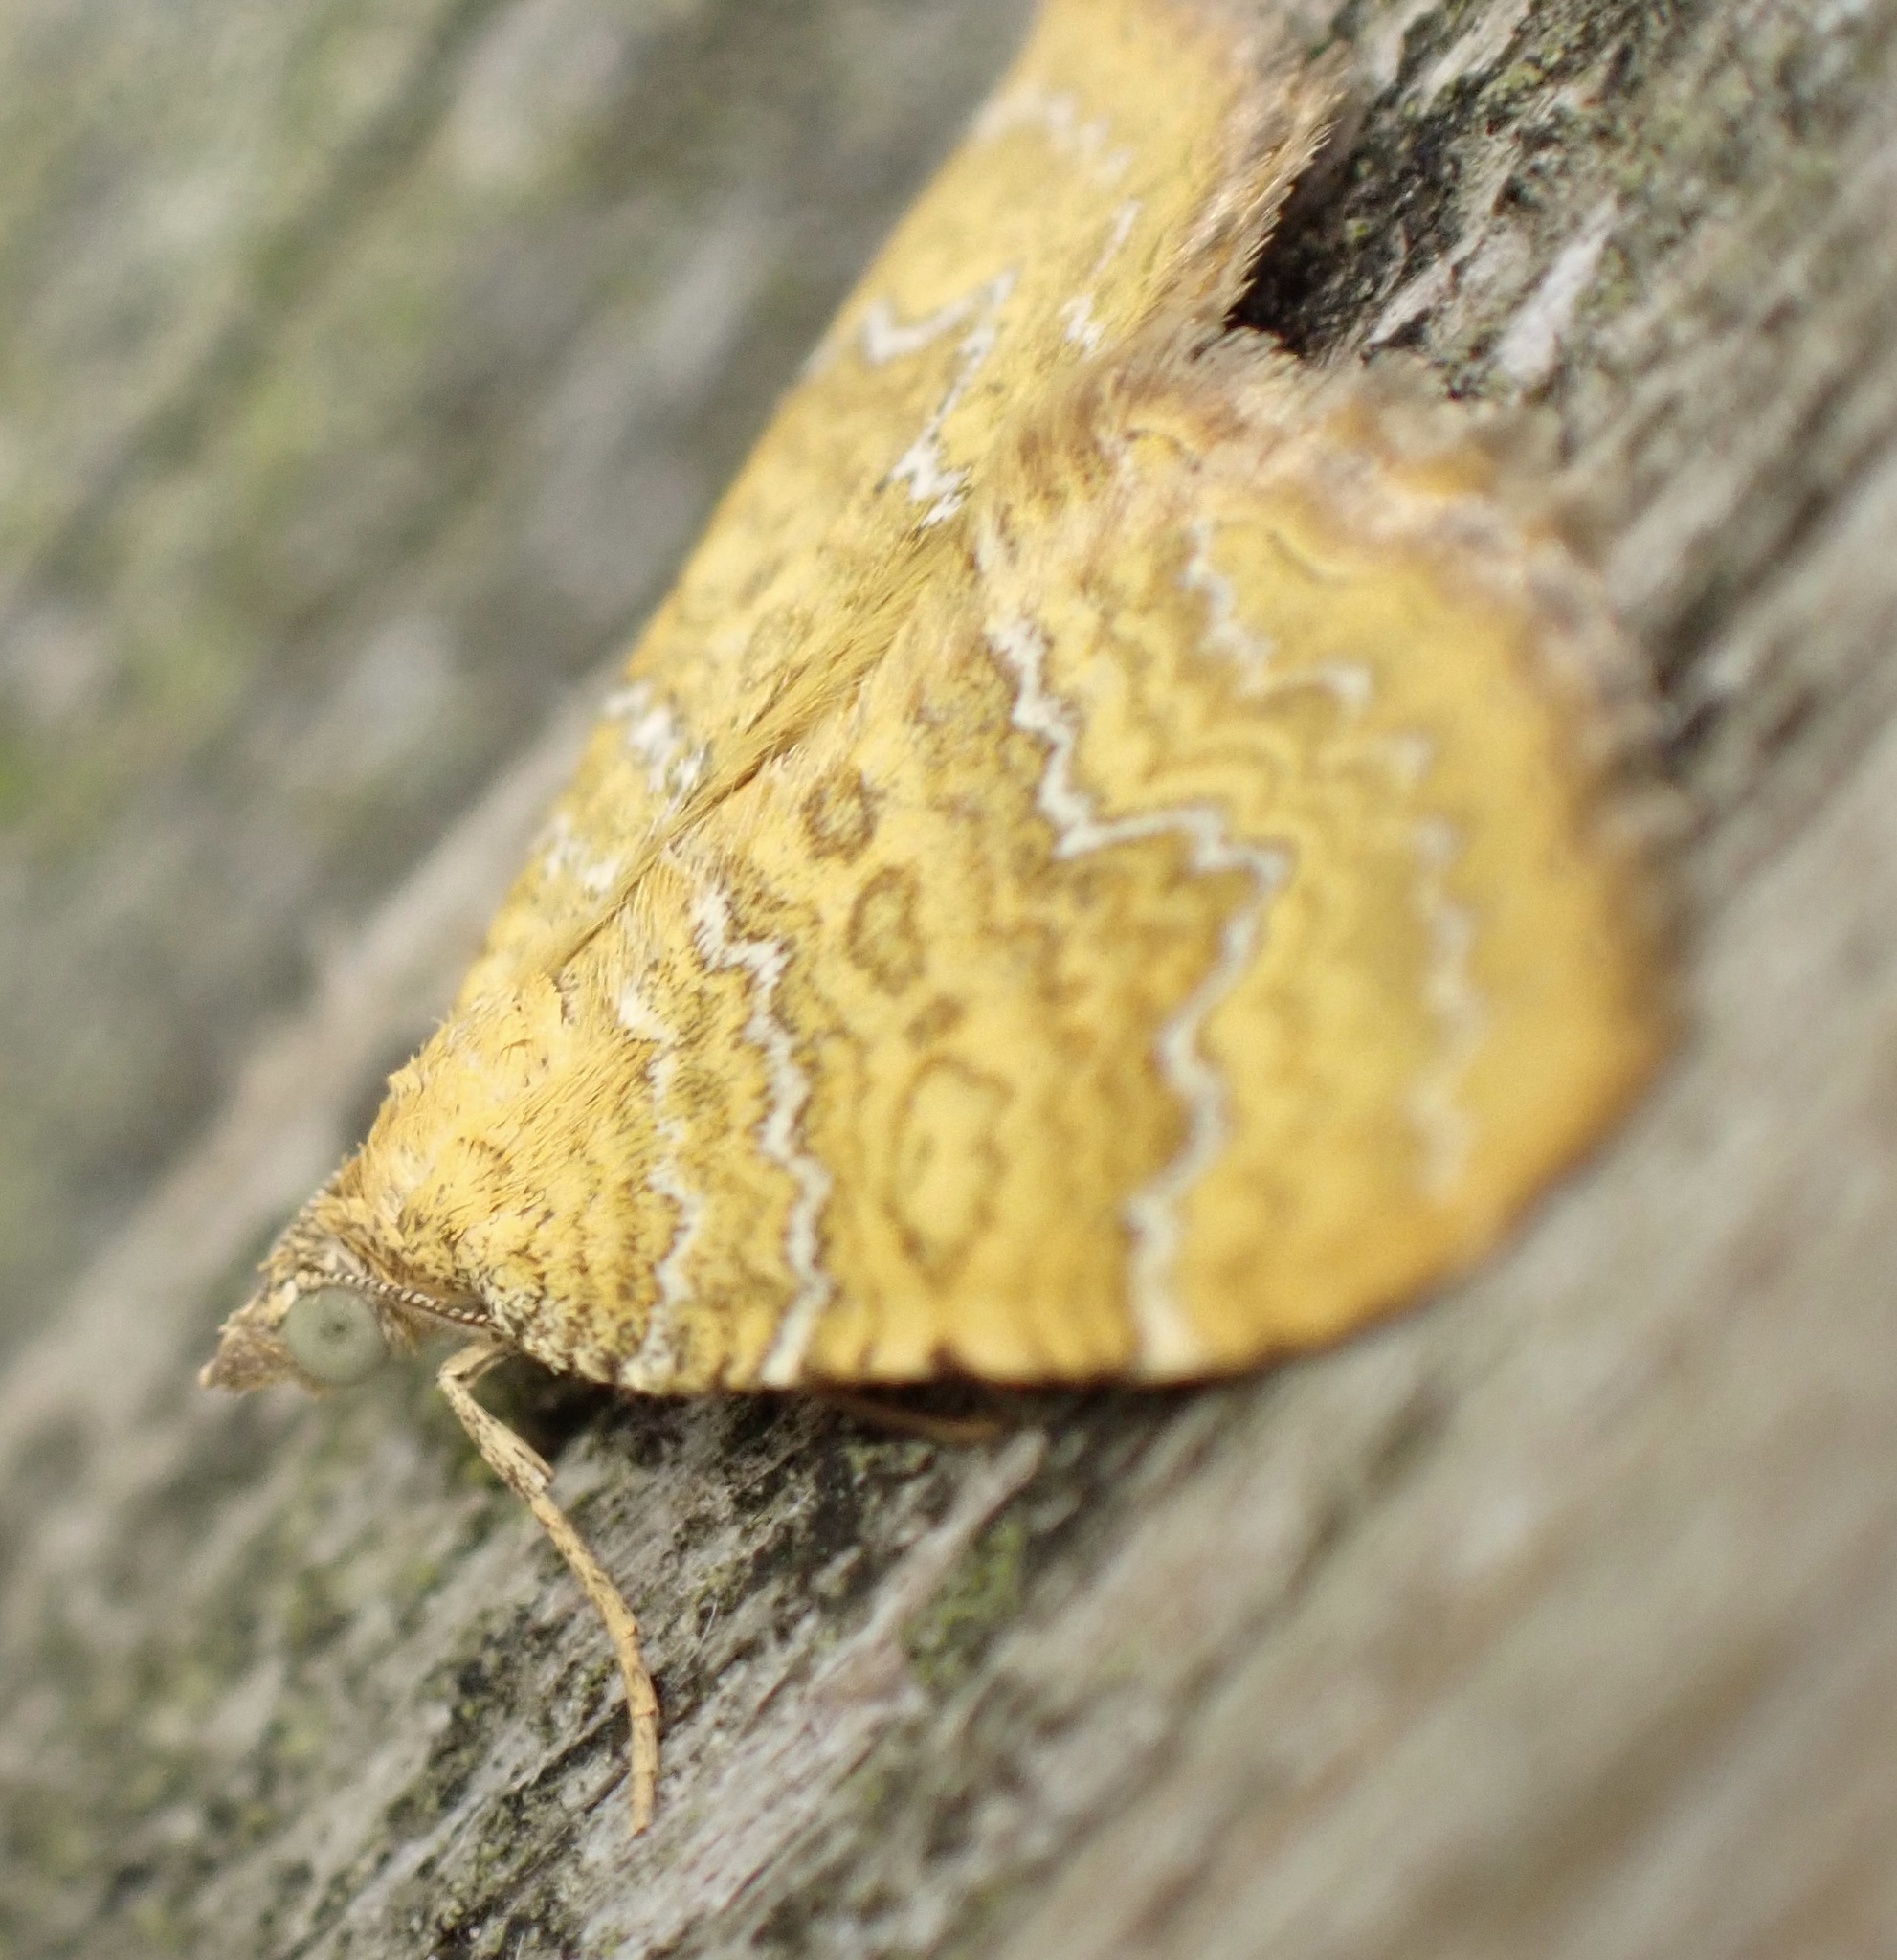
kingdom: Animalia
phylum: Arthropoda
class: Insecta
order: Lepidoptera
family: Geometridae
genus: Camptogramma
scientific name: Camptogramma bilineata
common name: Yellow shell
